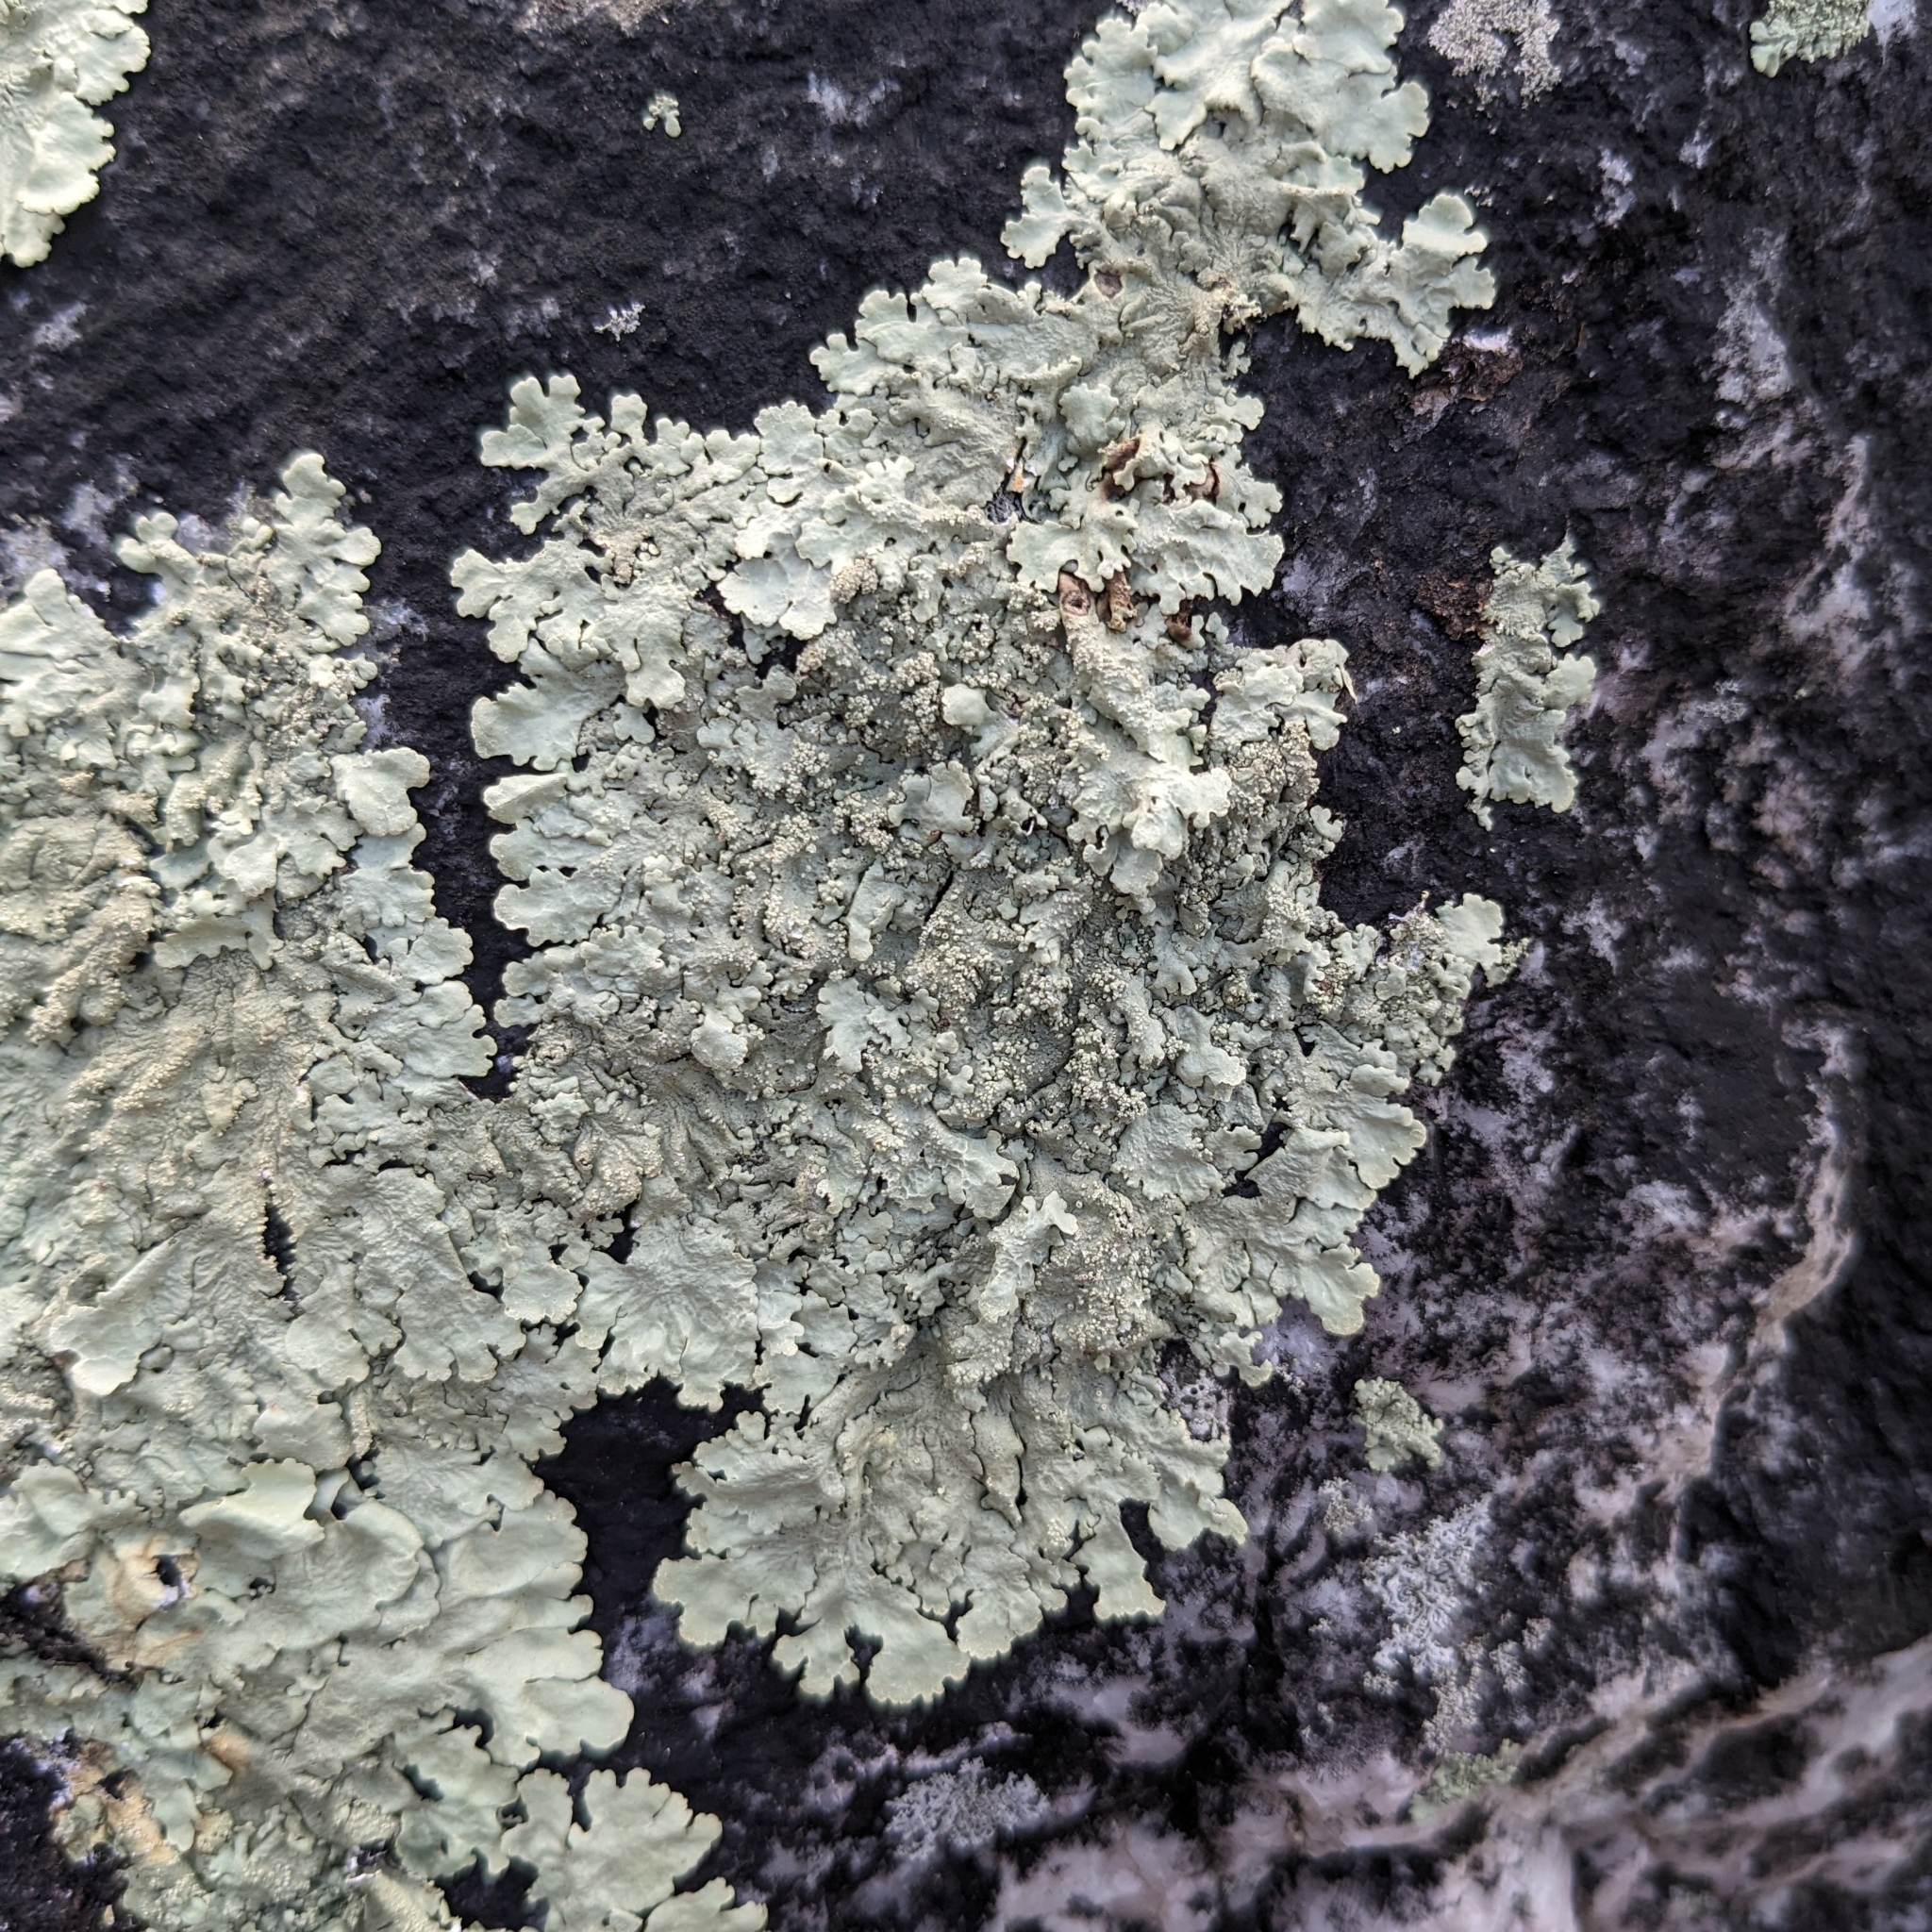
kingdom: Fungi
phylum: Ascomycota
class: Lecanoromycetes
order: Lecanorales
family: Parmeliaceae
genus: Flavoparmelia
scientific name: Flavoparmelia baltimorensis
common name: Rock greenshield
